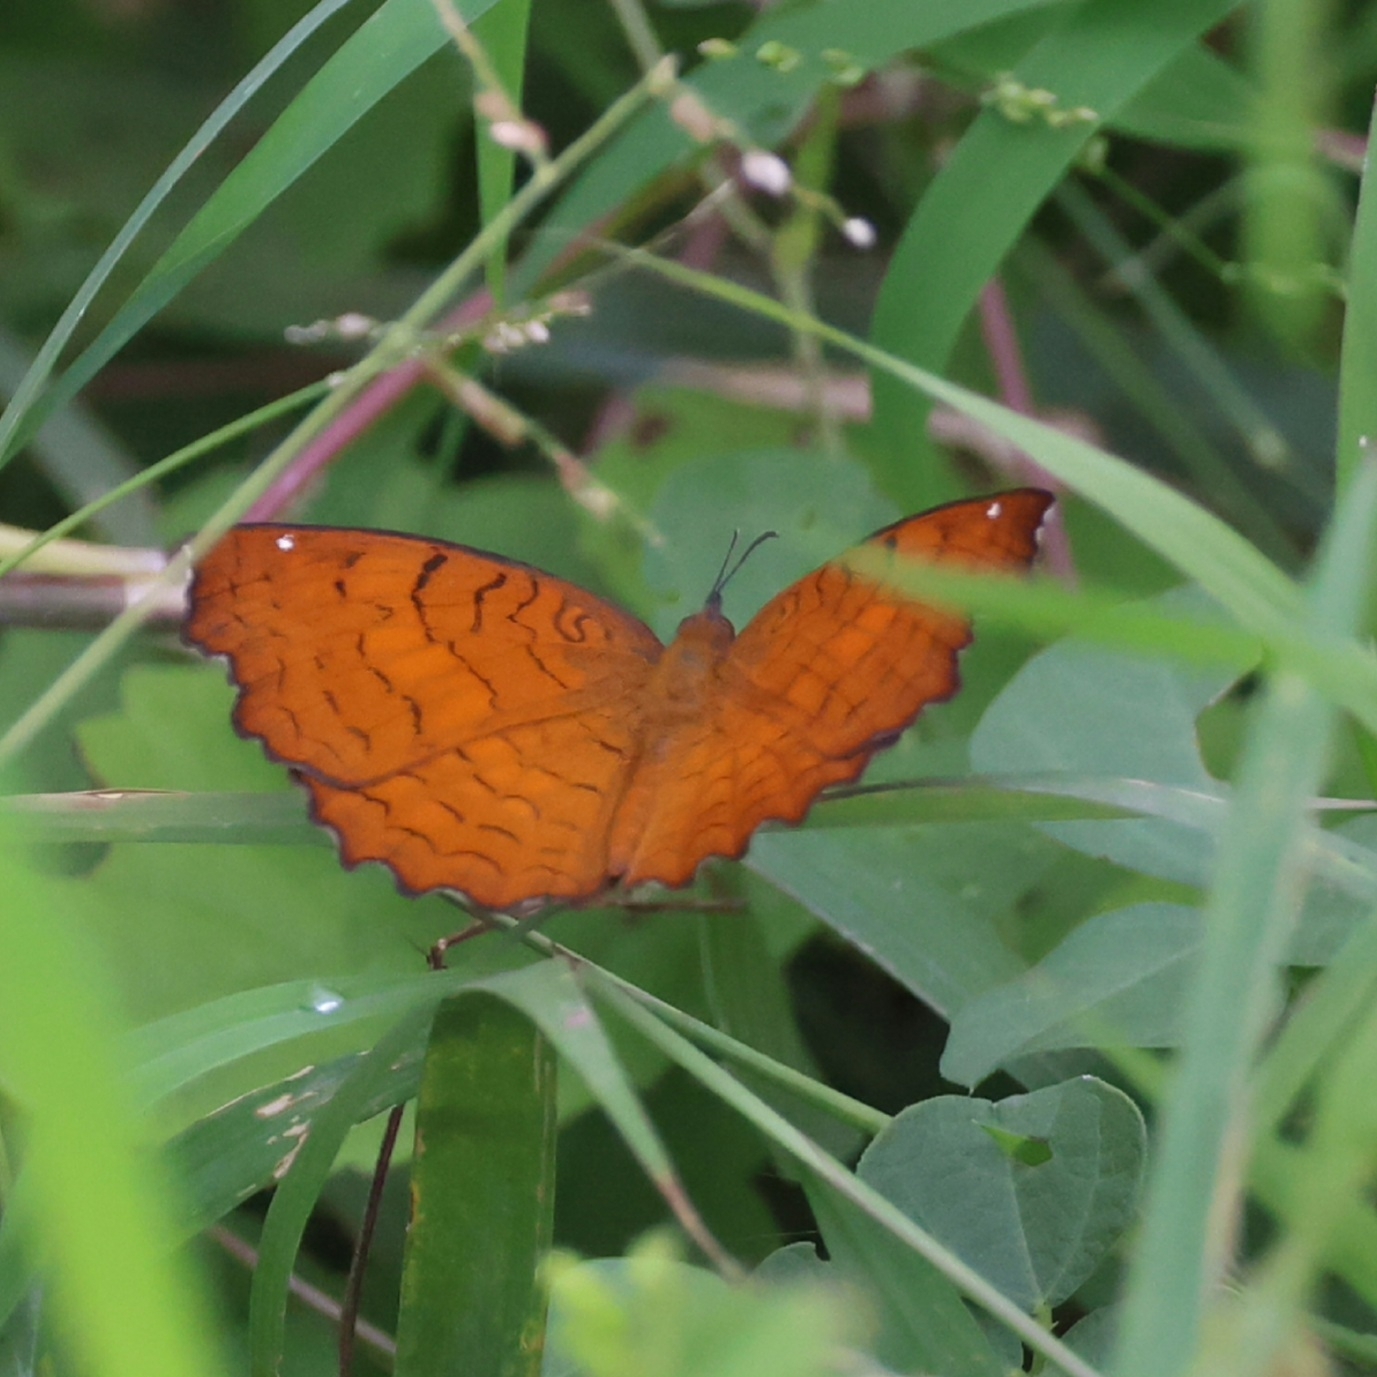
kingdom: Animalia
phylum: Arthropoda
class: Insecta
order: Lepidoptera
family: Nymphalidae
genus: Ariadne
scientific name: Ariadne ariadne
